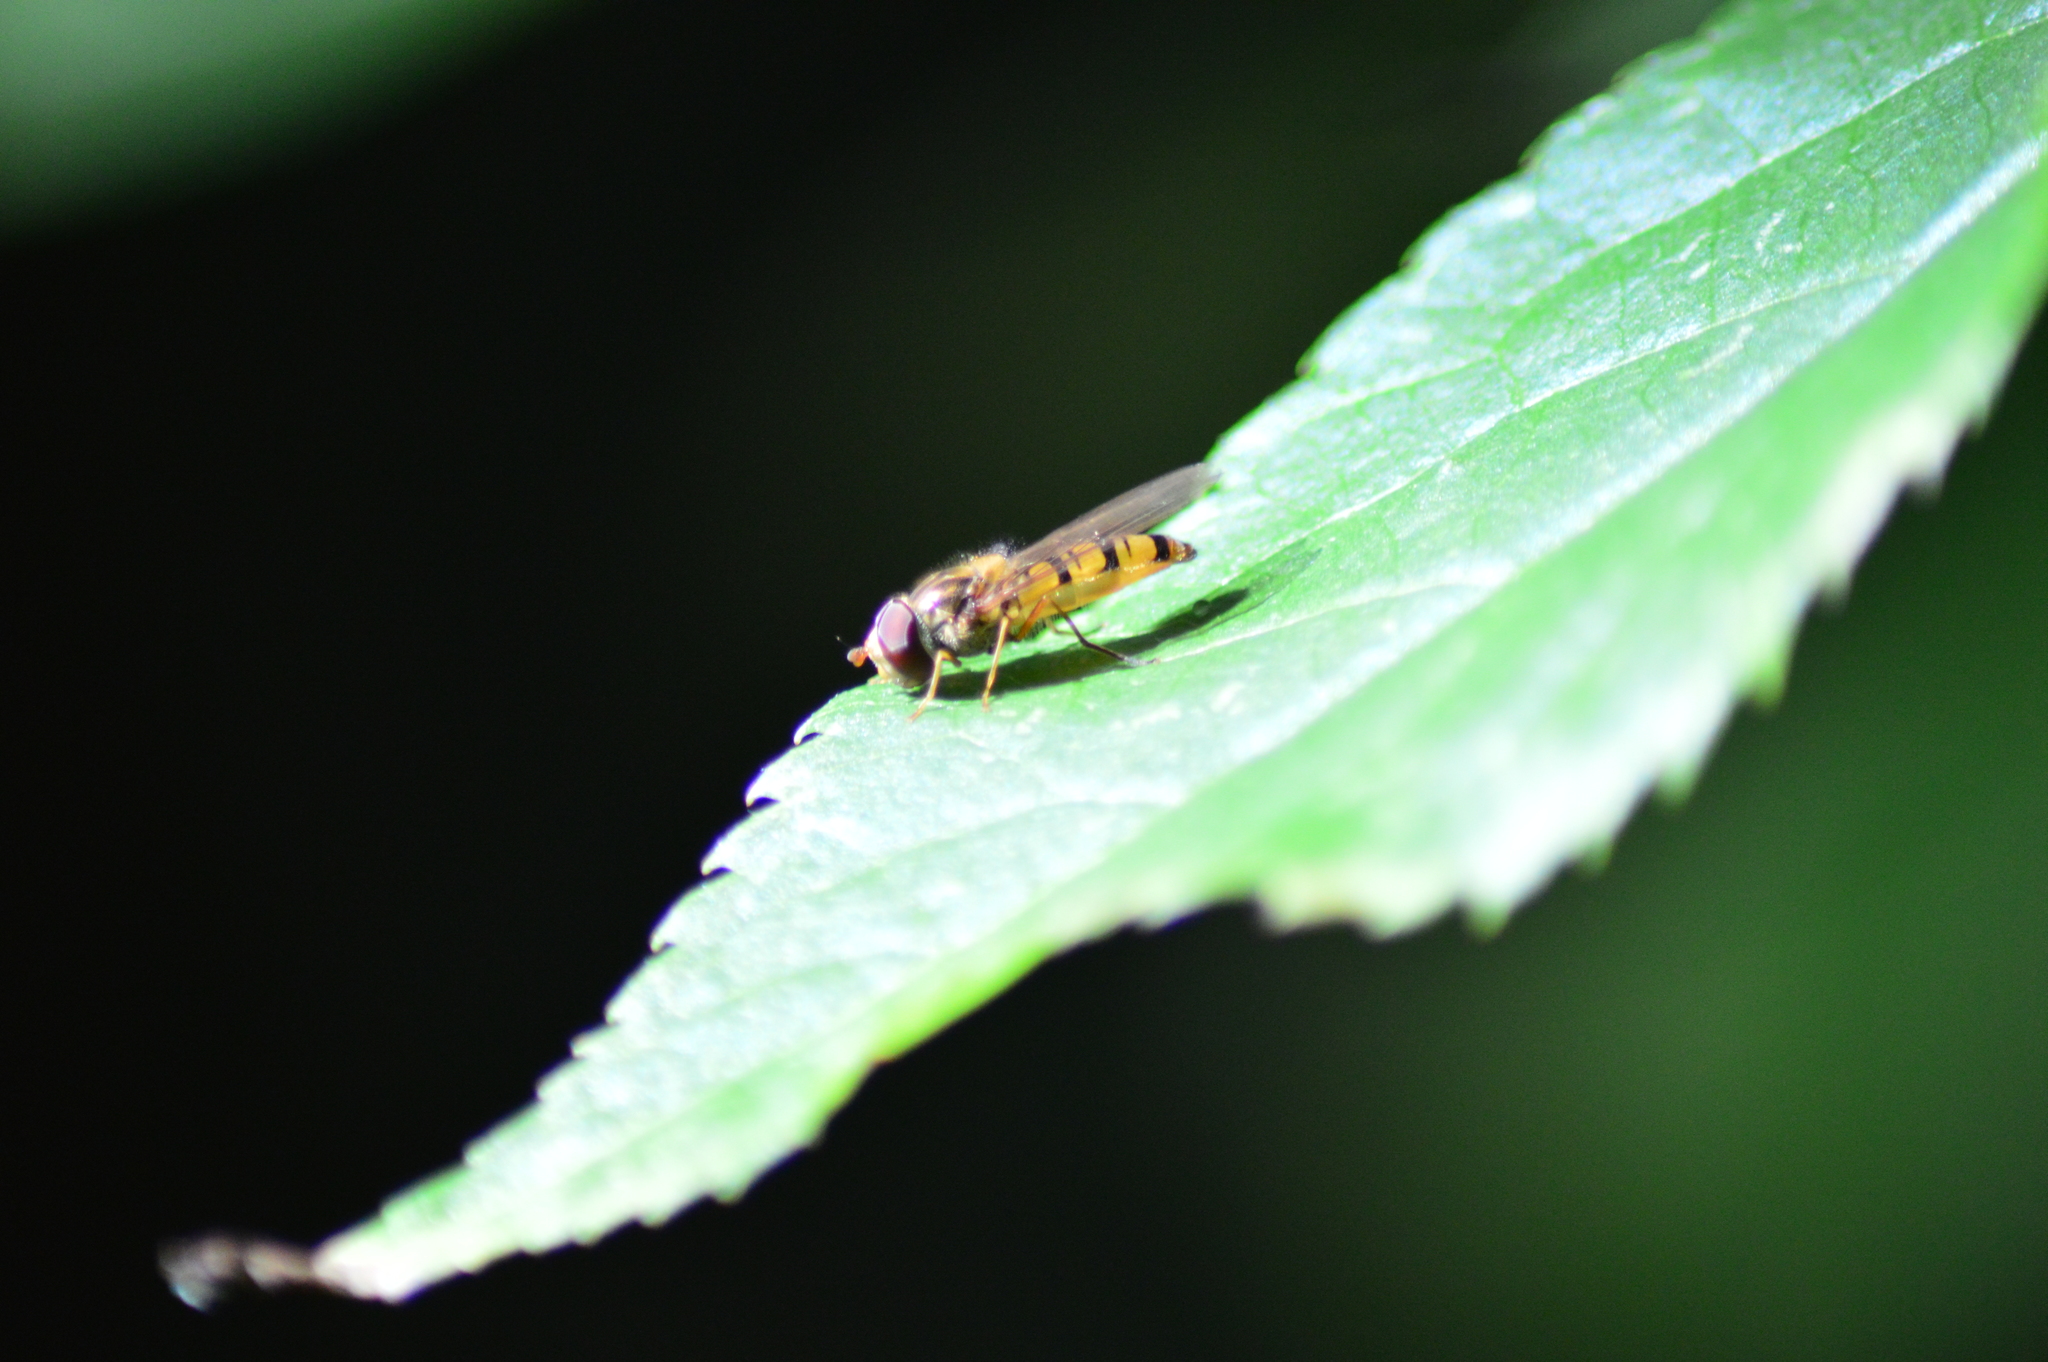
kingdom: Animalia
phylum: Arthropoda
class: Insecta
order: Diptera
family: Syrphidae
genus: Episyrphus
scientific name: Episyrphus balteatus
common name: Marmalade hoverfly
